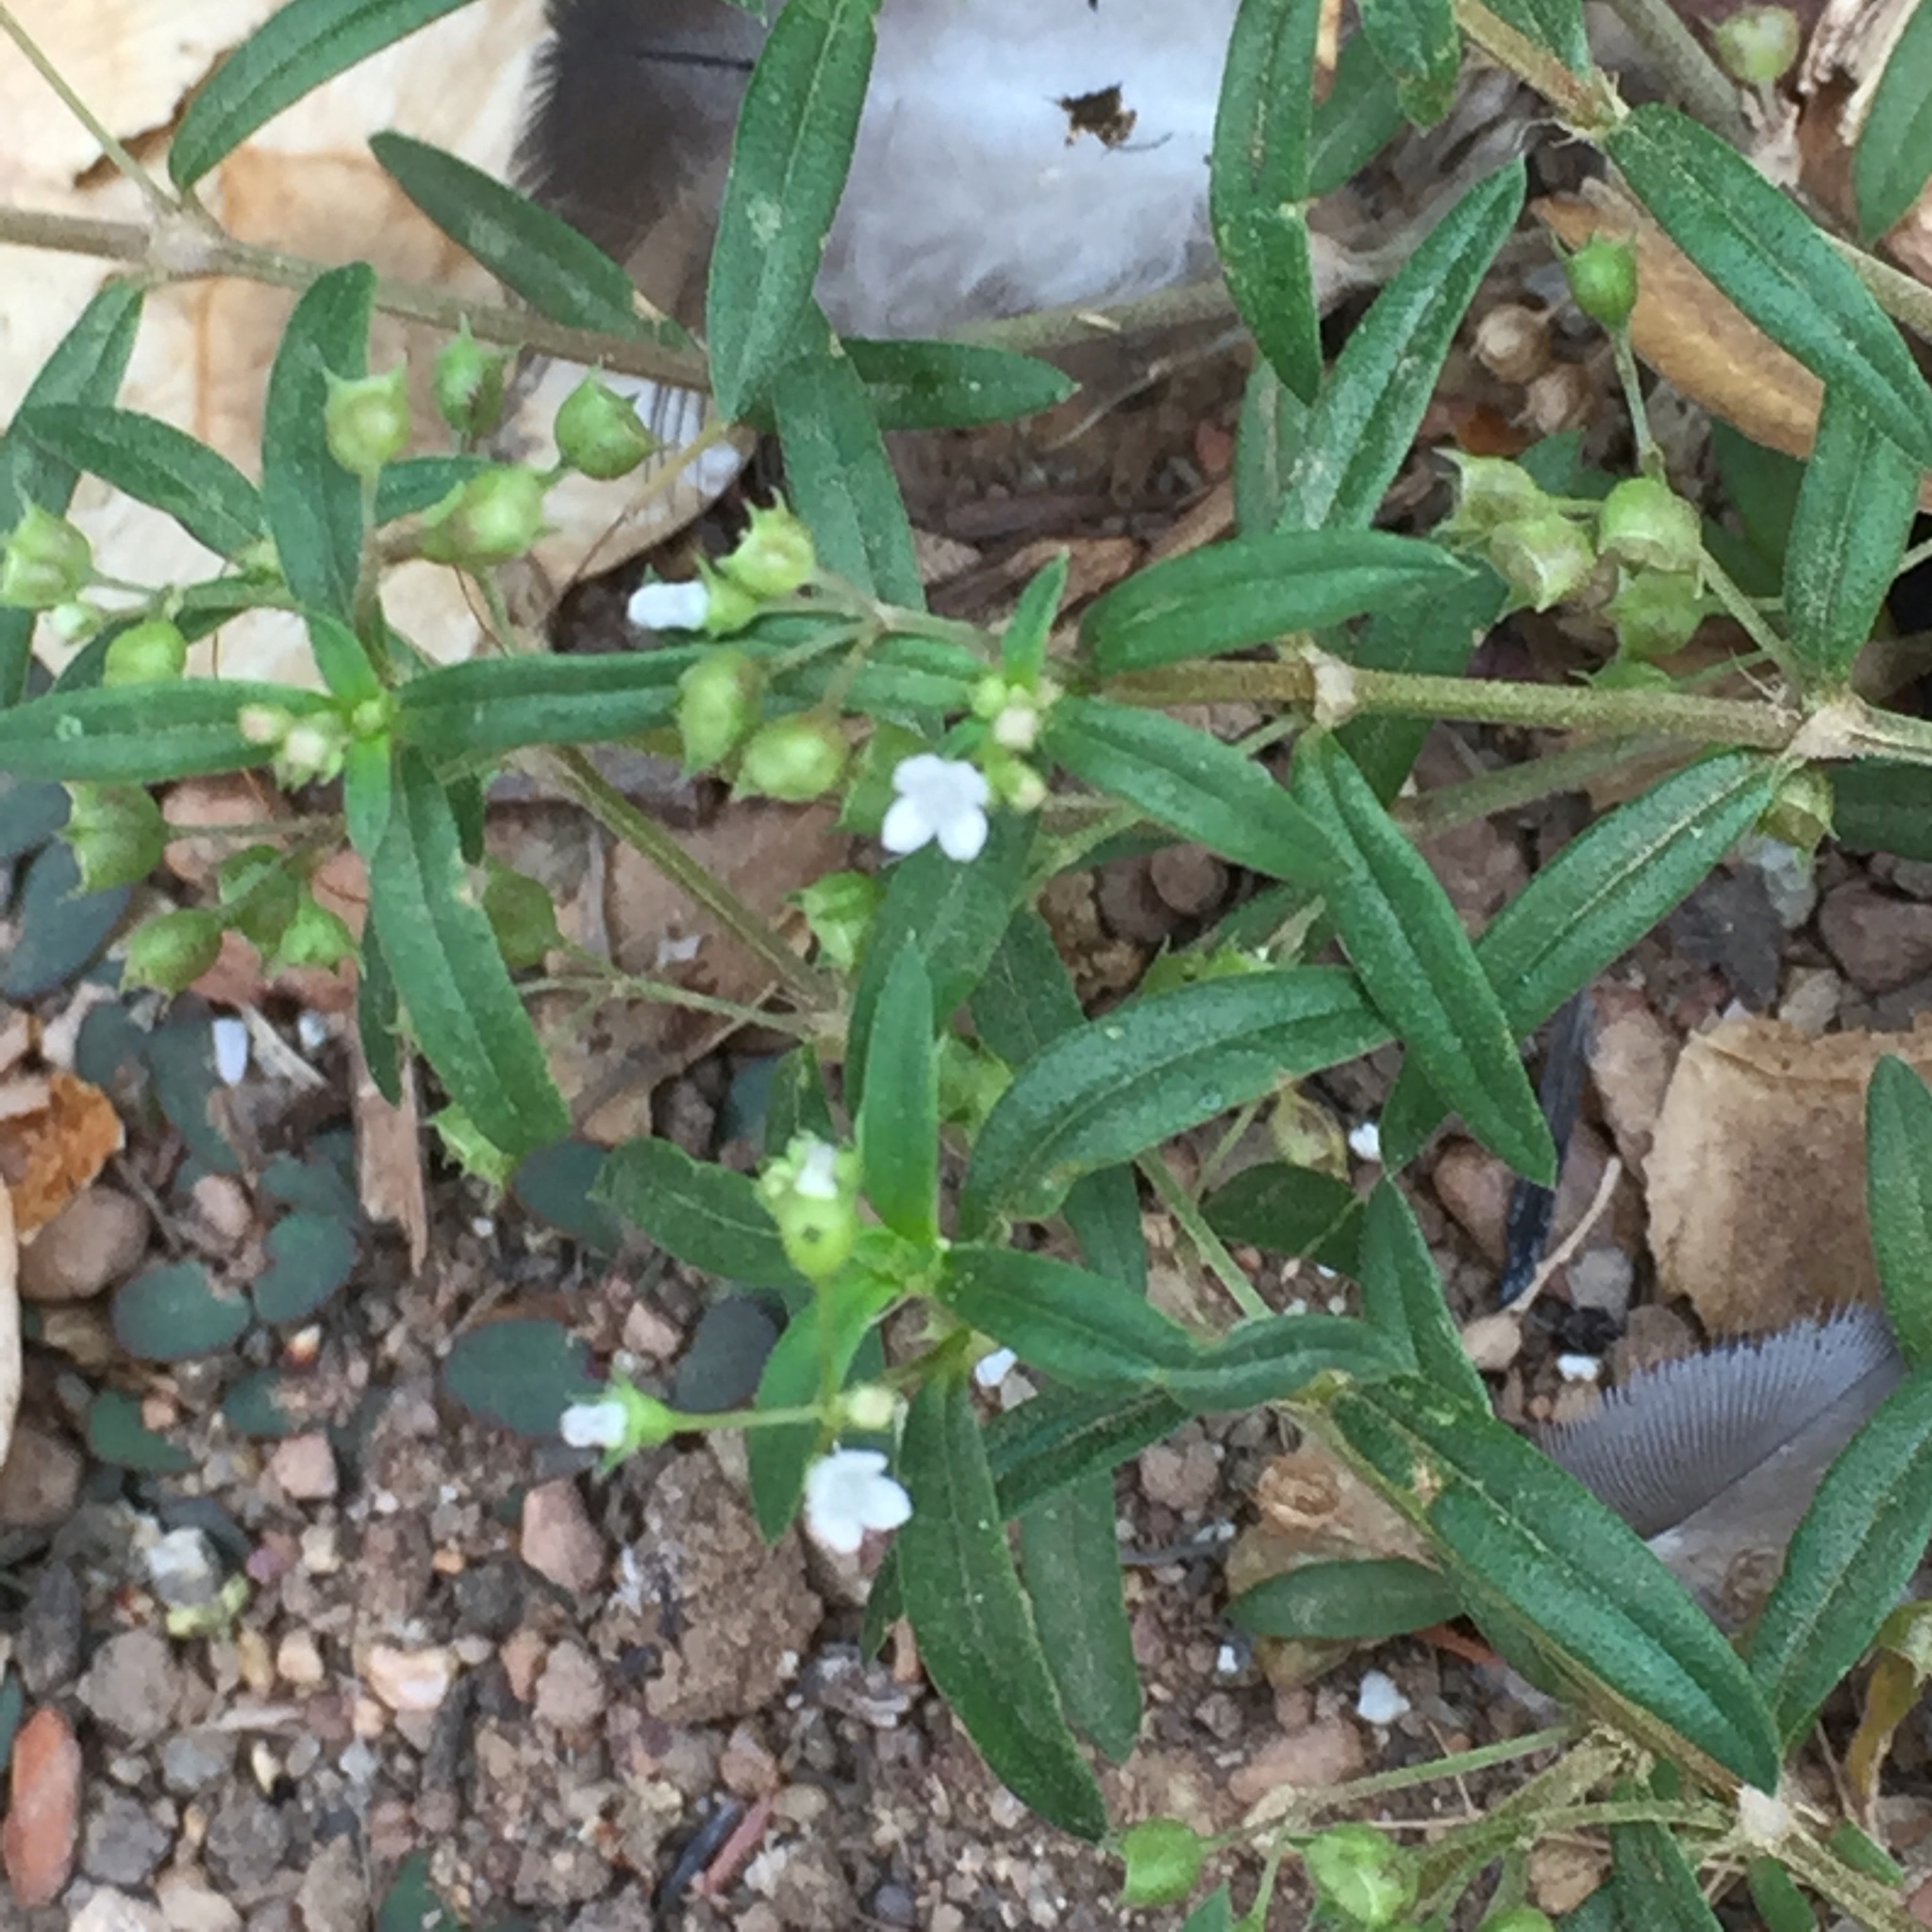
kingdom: Plantae
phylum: Tracheophyta
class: Magnoliopsida
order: Gentianales
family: Rubiaceae
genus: Oldenlandia
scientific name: Oldenlandia corymbosa
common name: Flat-top mille graines
